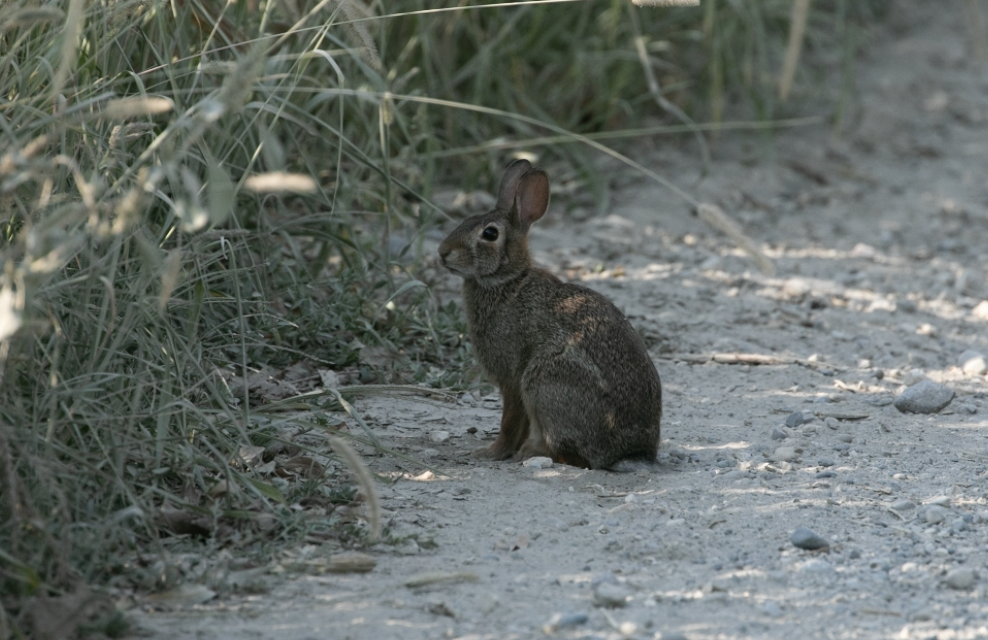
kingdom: Animalia
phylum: Chordata
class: Mammalia
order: Lagomorpha
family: Leporidae
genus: Sylvilagus
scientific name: Sylvilagus floridanus
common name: Eastern cottontail
